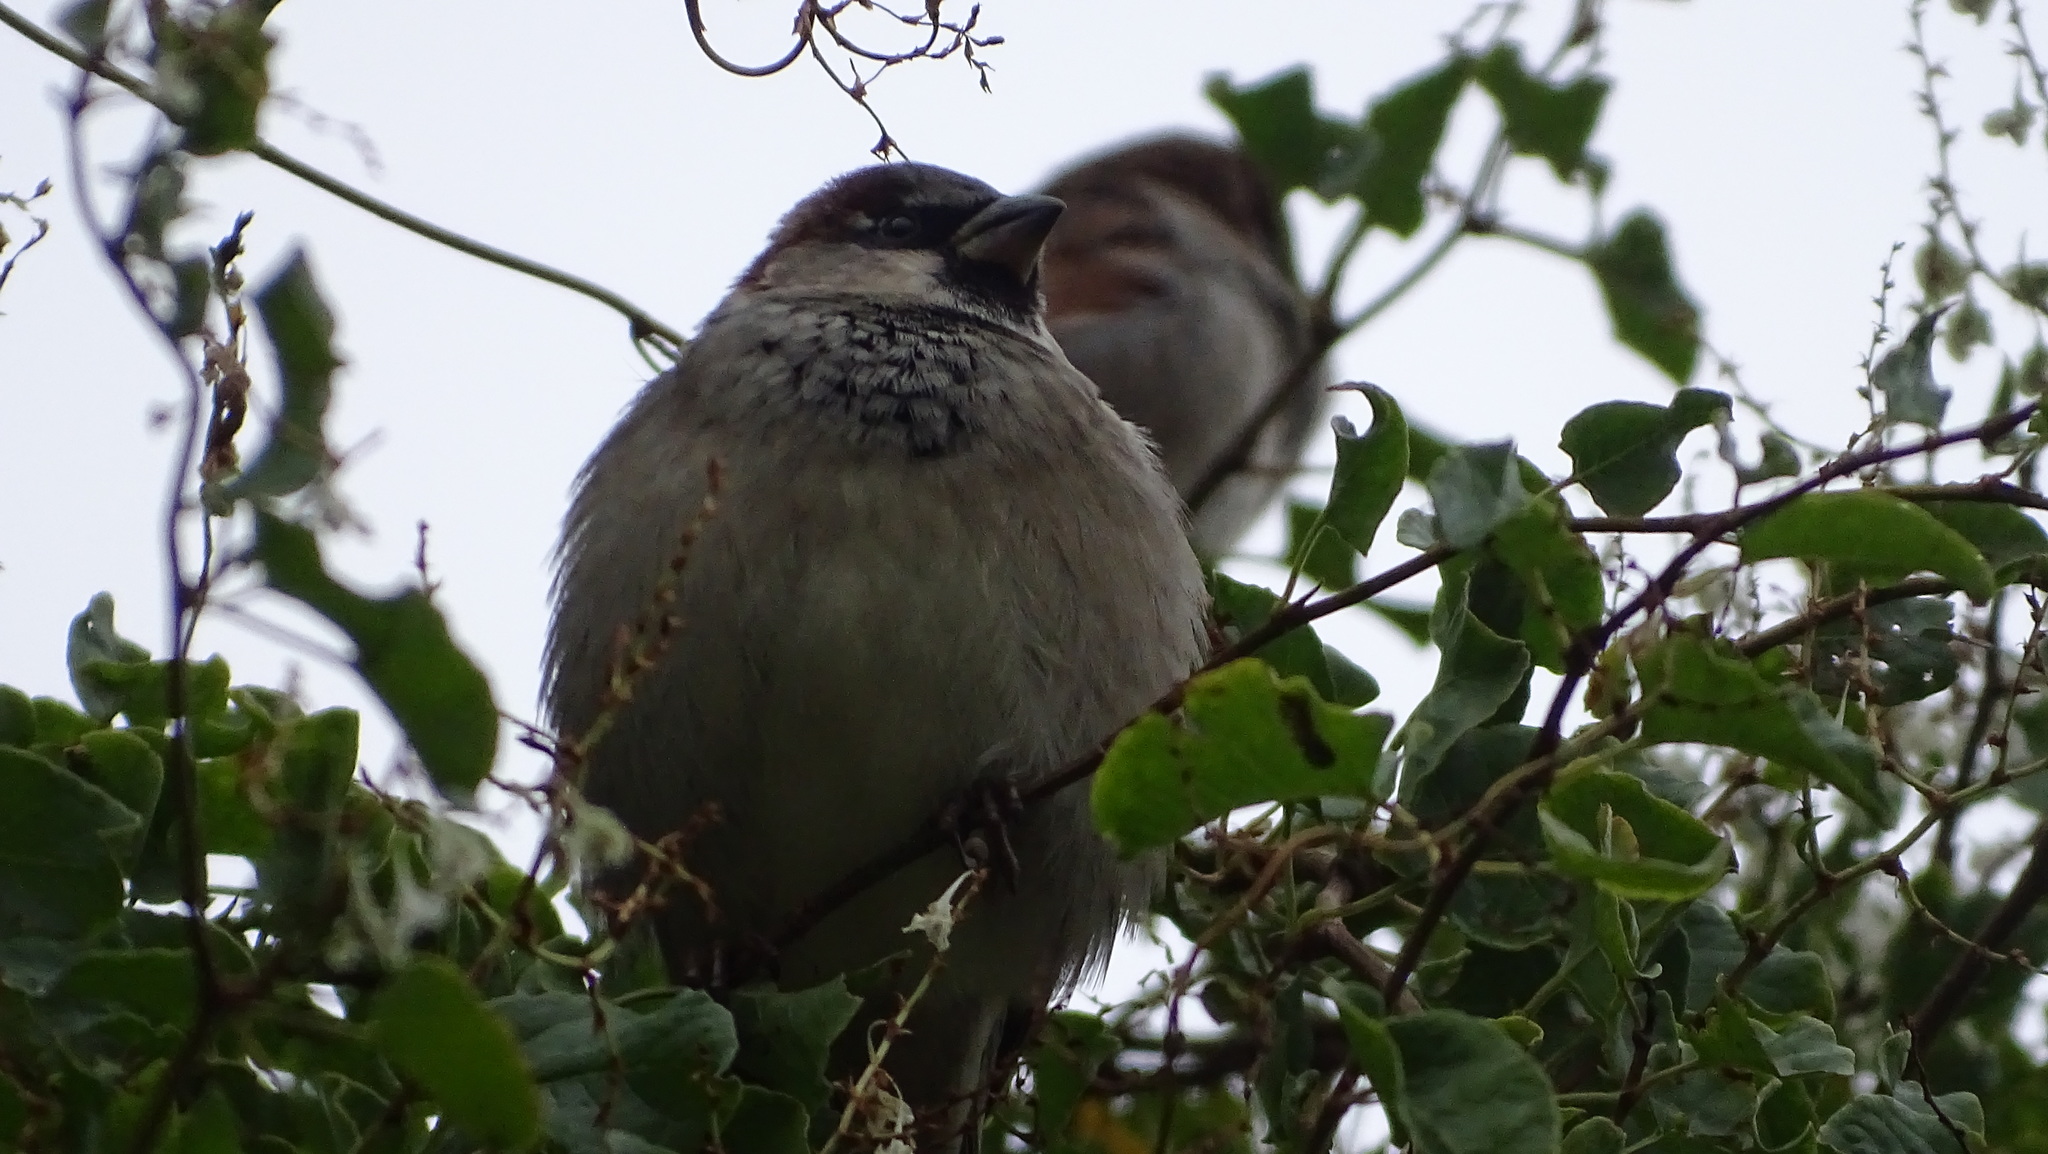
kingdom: Animalia
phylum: Chordata
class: Aves
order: Passeriformes
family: Passeridae
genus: Passer
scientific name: Passer domesticus
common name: House sparrow
